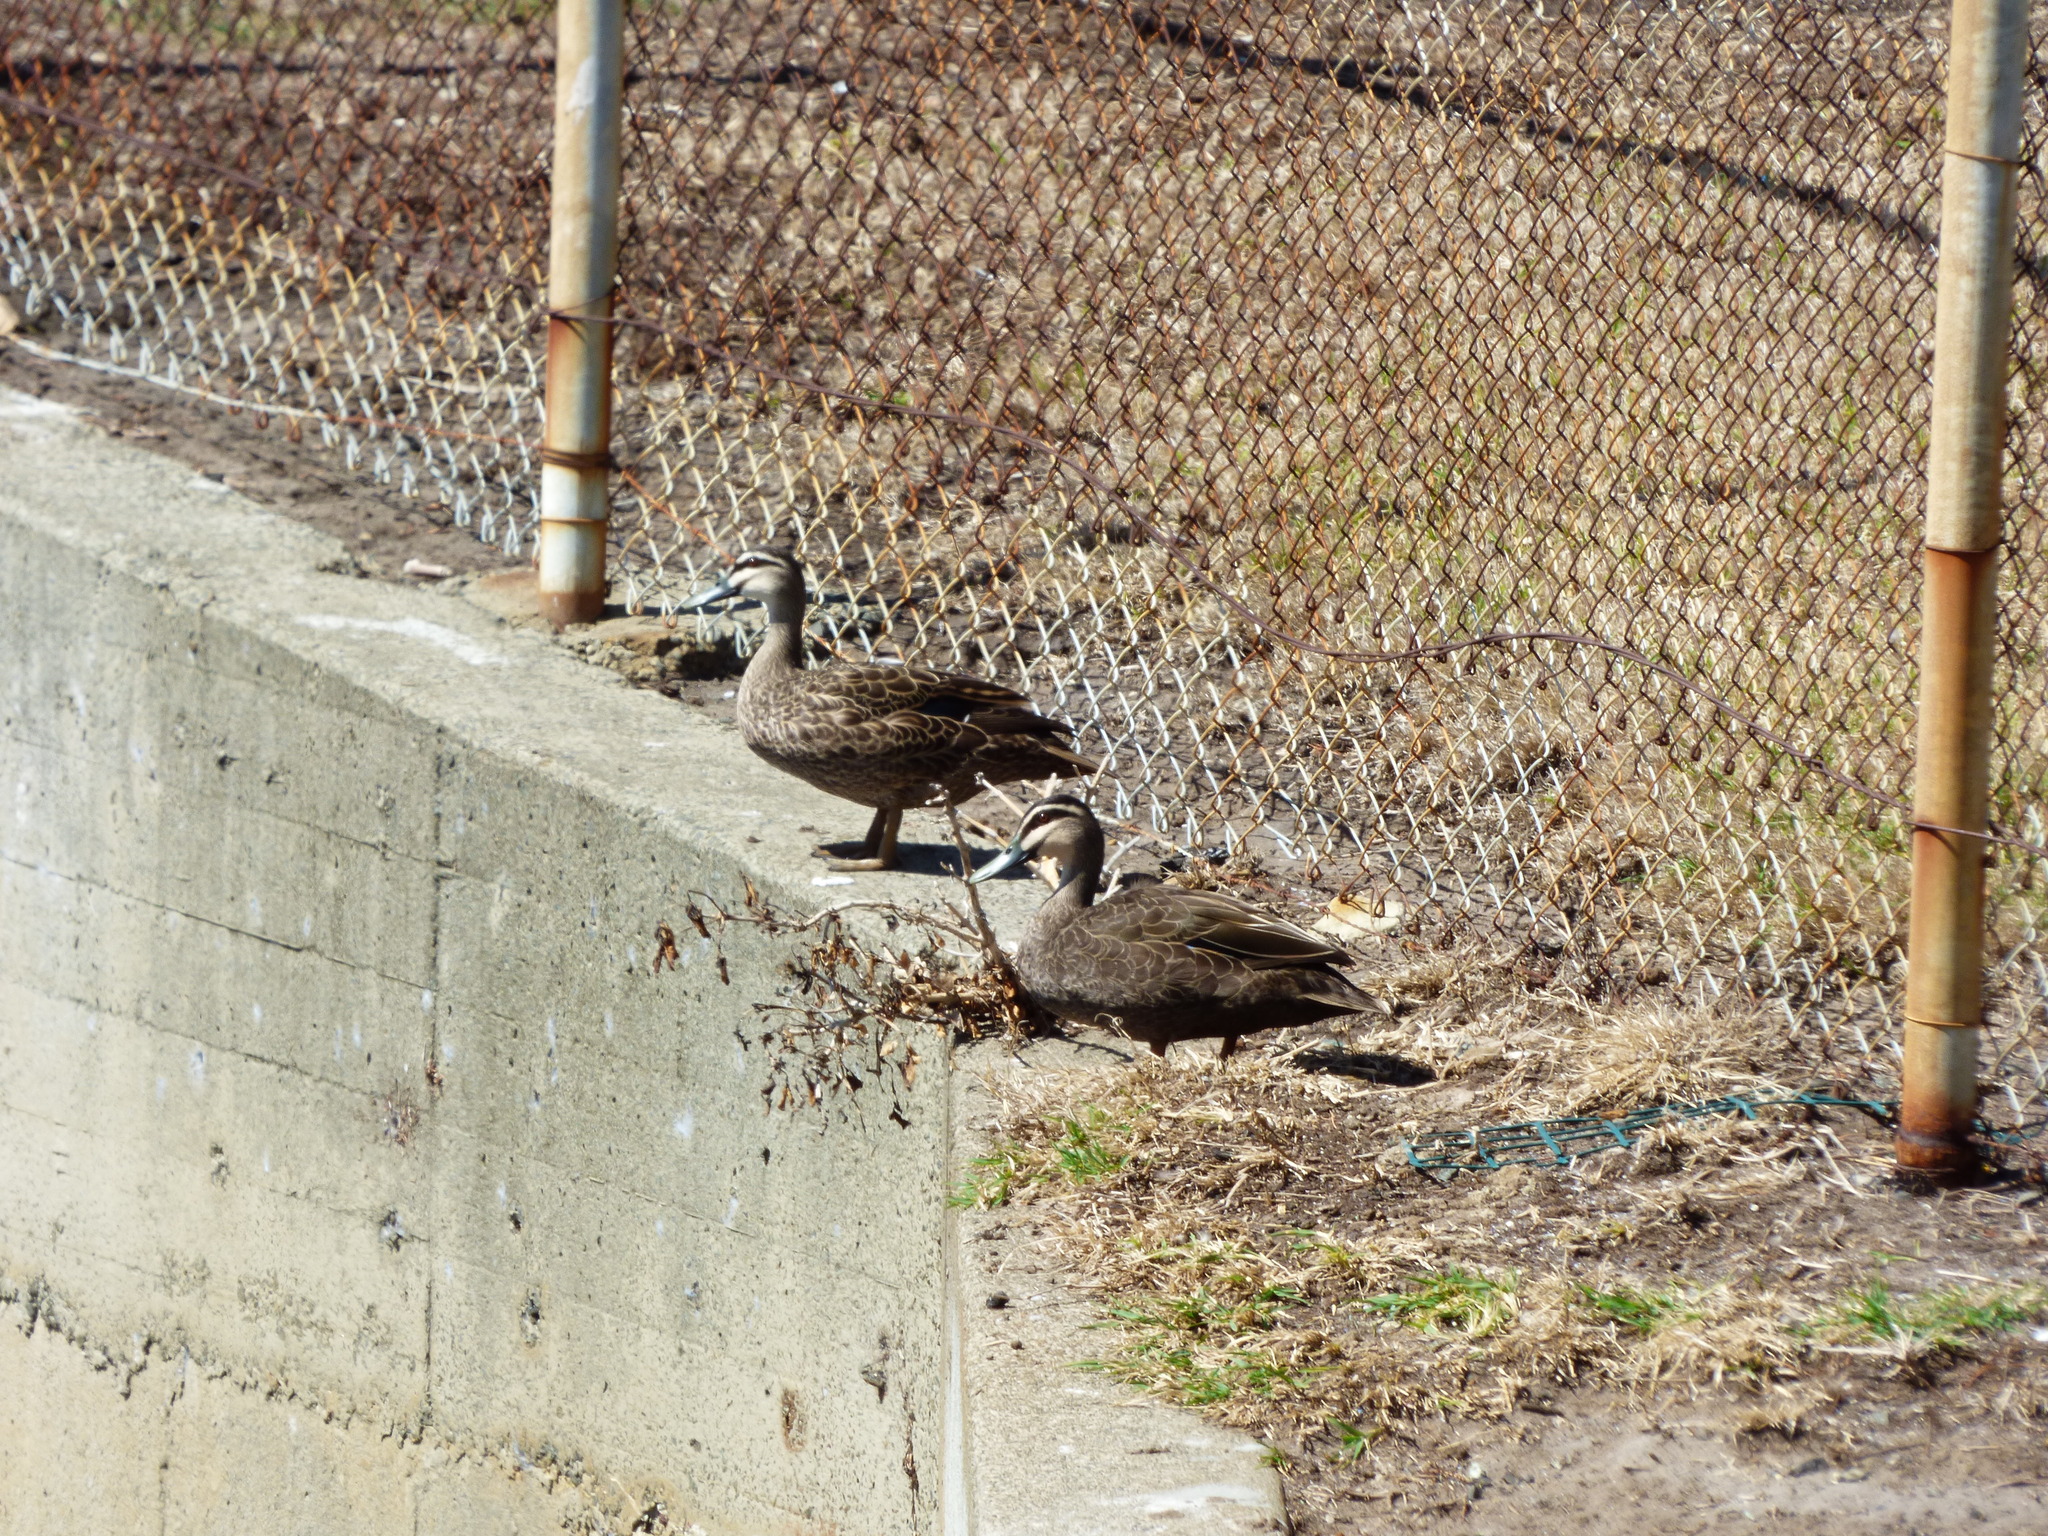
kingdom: Animalia
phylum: Chordata
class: Aves
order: Anseriformes
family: Anatidae
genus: Anas
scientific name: Anas superciliosa
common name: Pacific black duck
